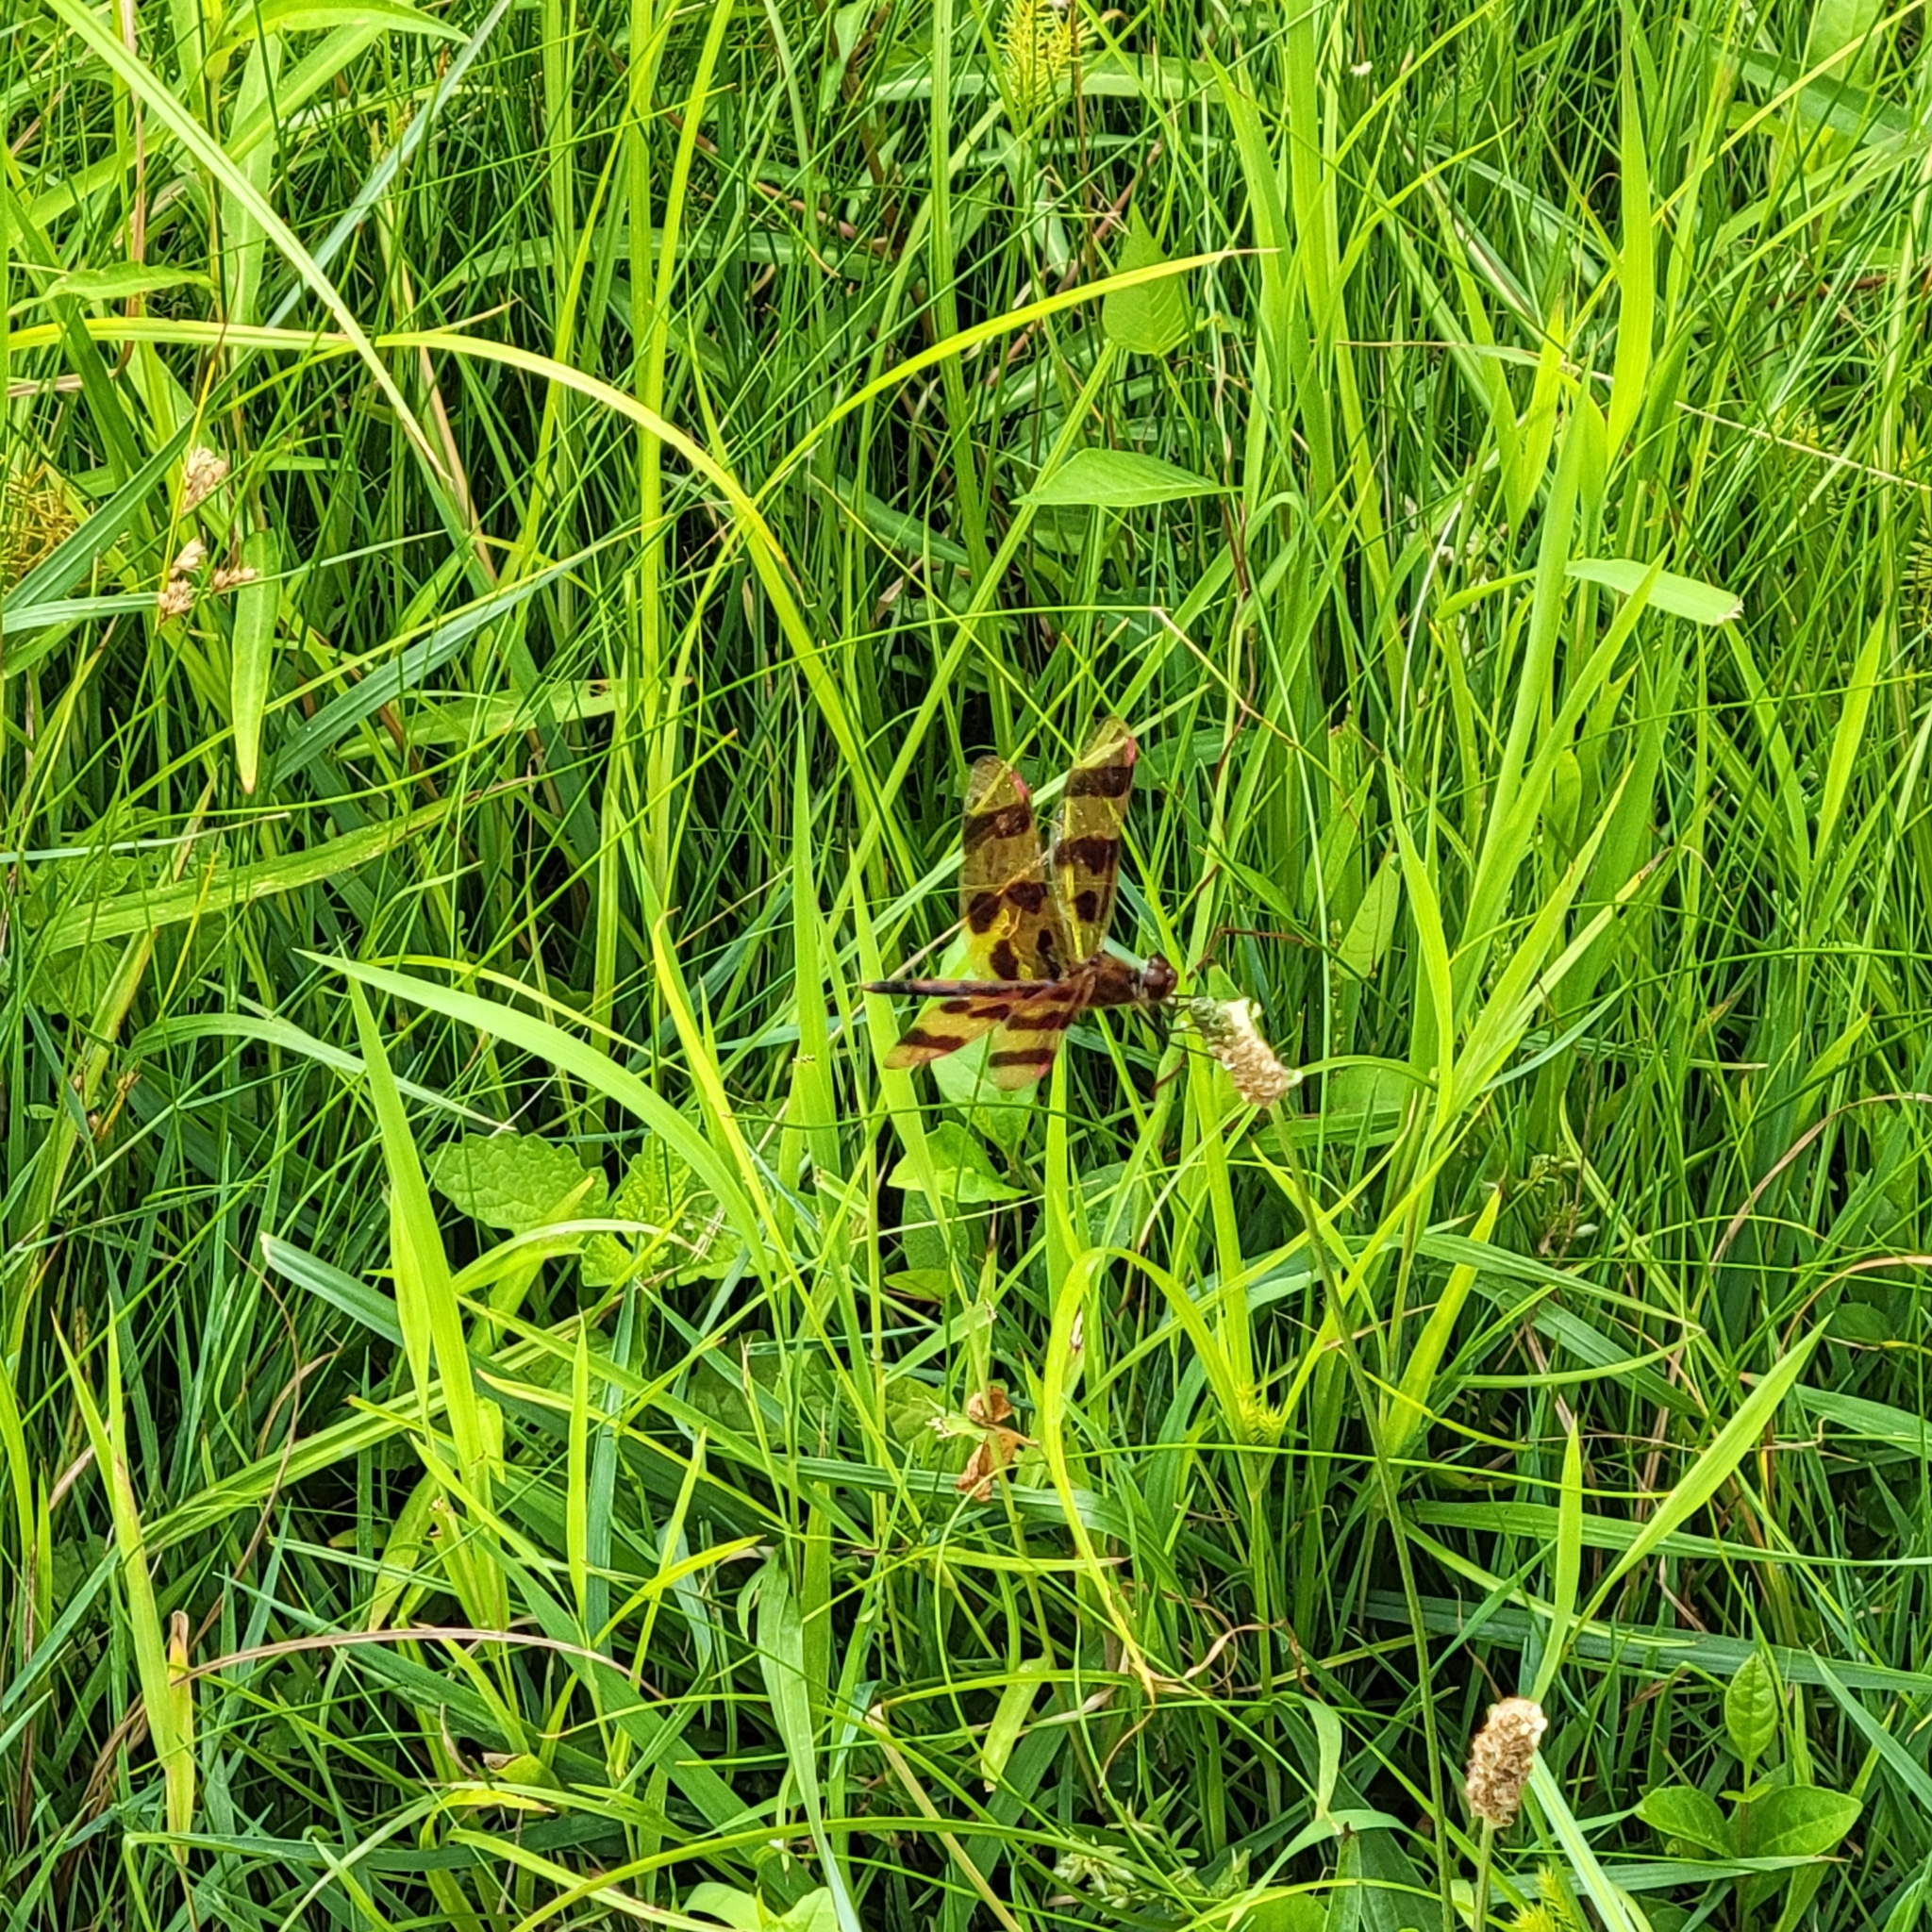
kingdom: Animalia
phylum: Arthropoda
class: Insecta
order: Odonata
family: Libellulidae
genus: Celithemis
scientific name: Celithemis eponina
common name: Halloween pennant
